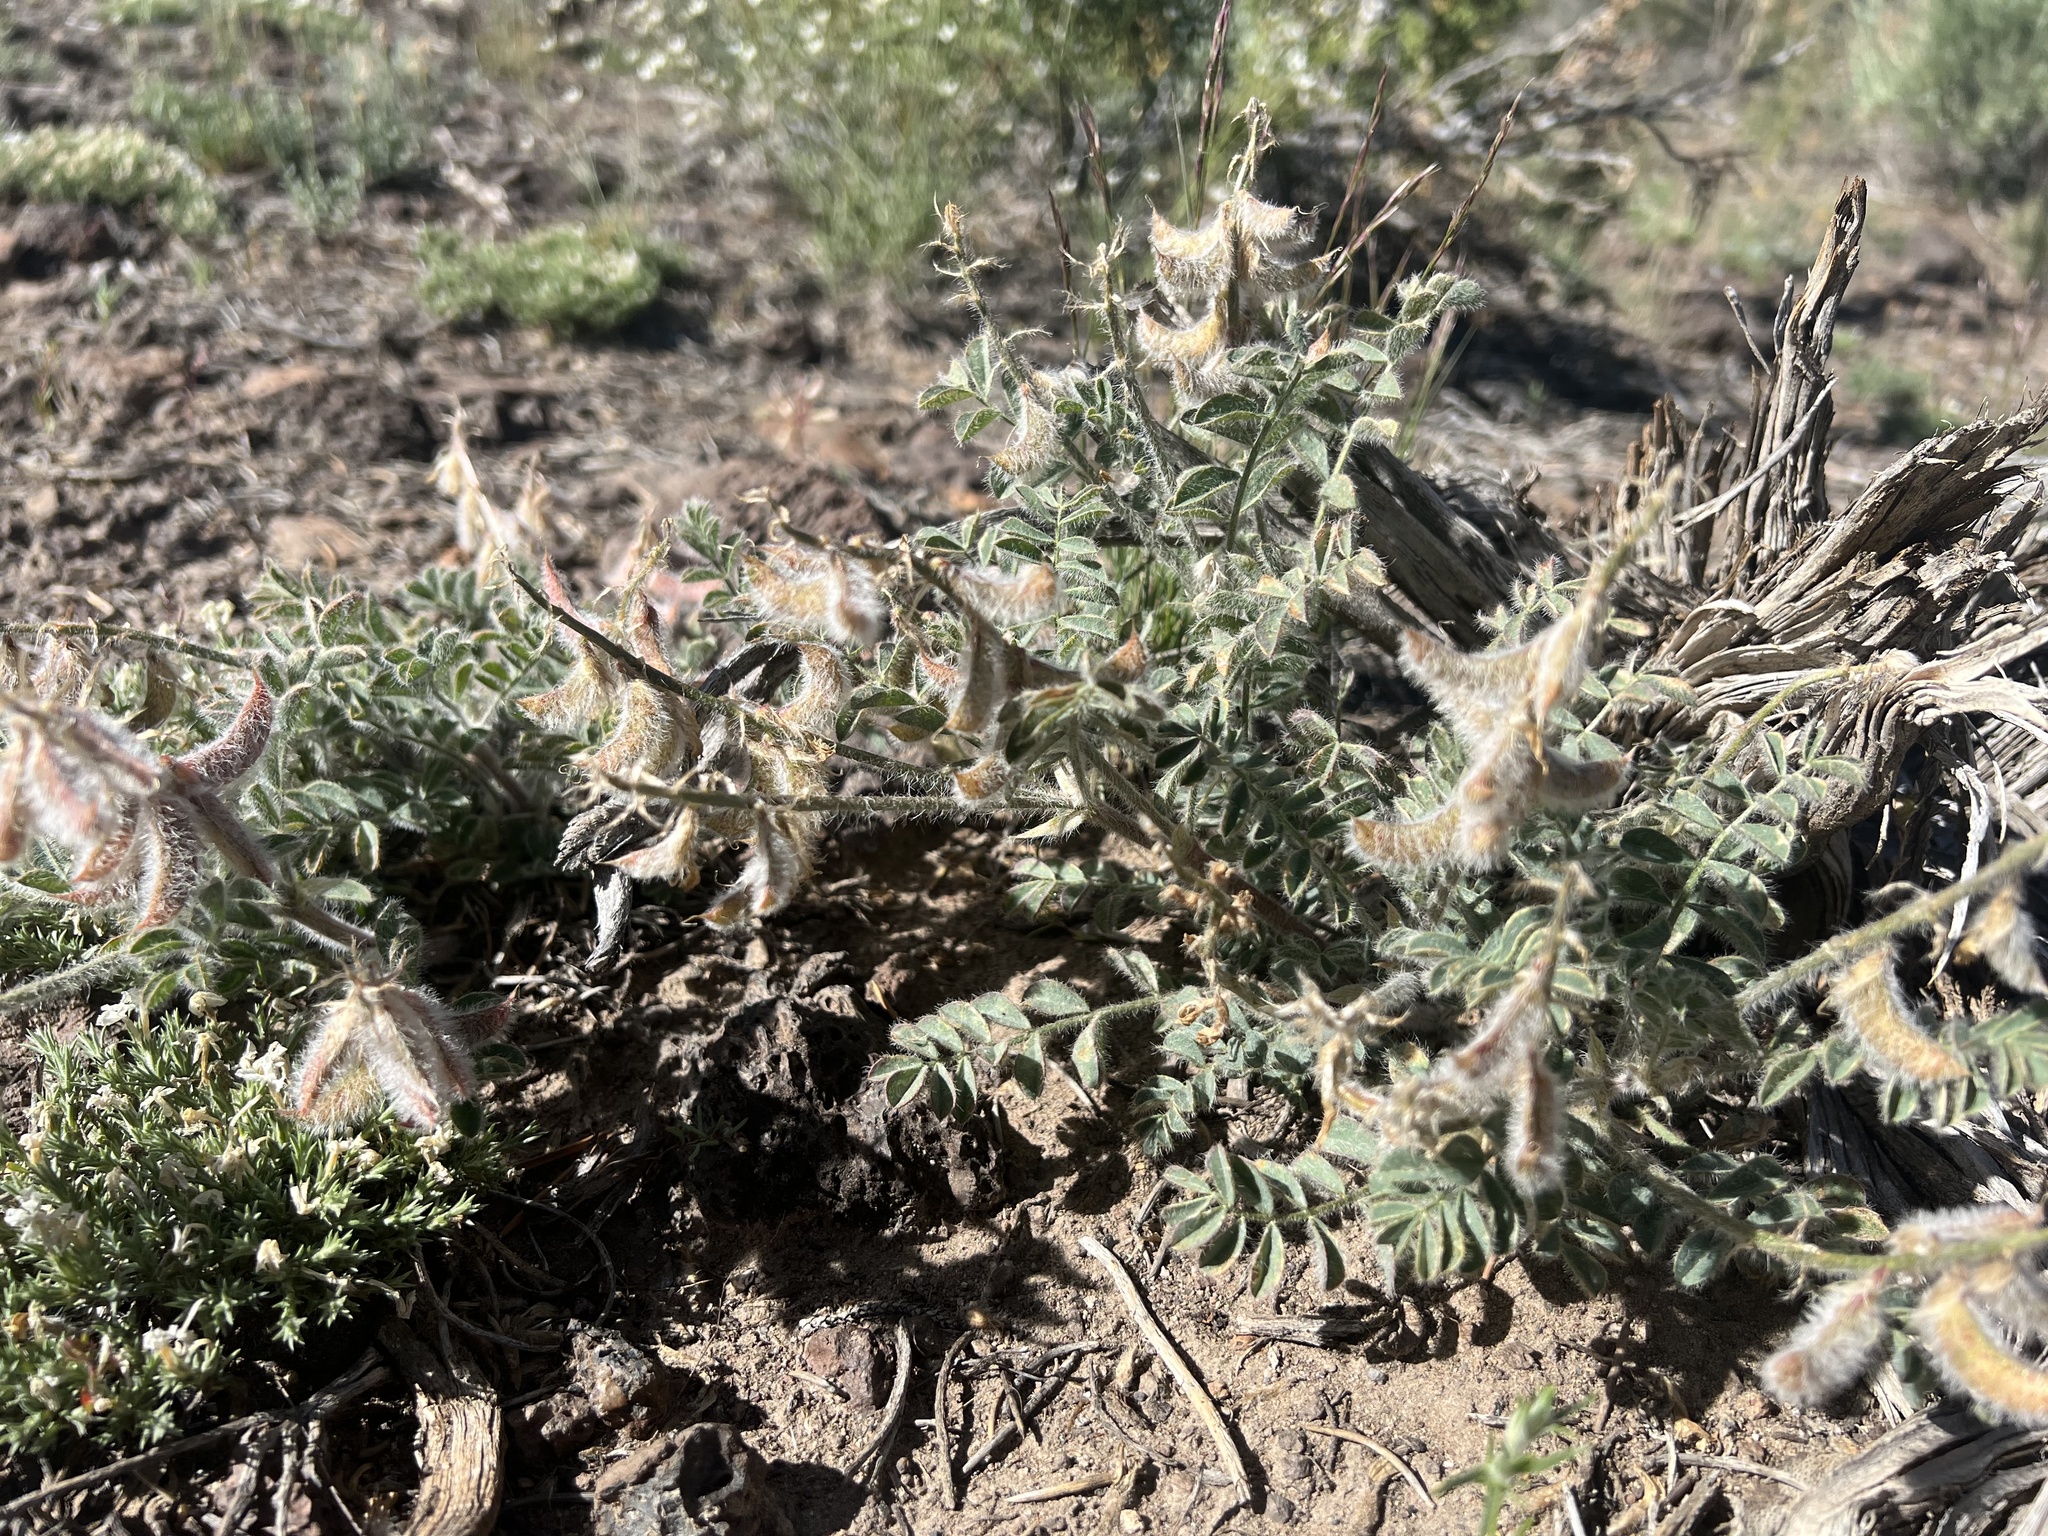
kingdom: Plantae
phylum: Tracheophyta
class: Magnoliopsida
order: Fabales
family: Fabaceae
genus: Astragalus
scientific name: Astragalus malacus
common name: Shaggy milk-vetch
